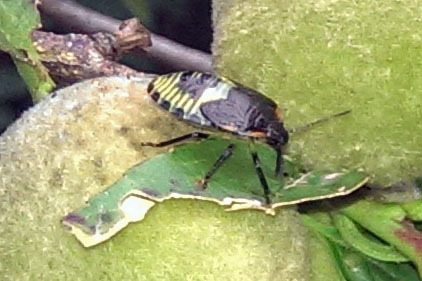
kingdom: Animalia
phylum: Arthropoda
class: Insecta
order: Hemiptera
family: Pentatomidae
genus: Chinavia
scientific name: Chinavia hilaris
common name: Green stink bug
